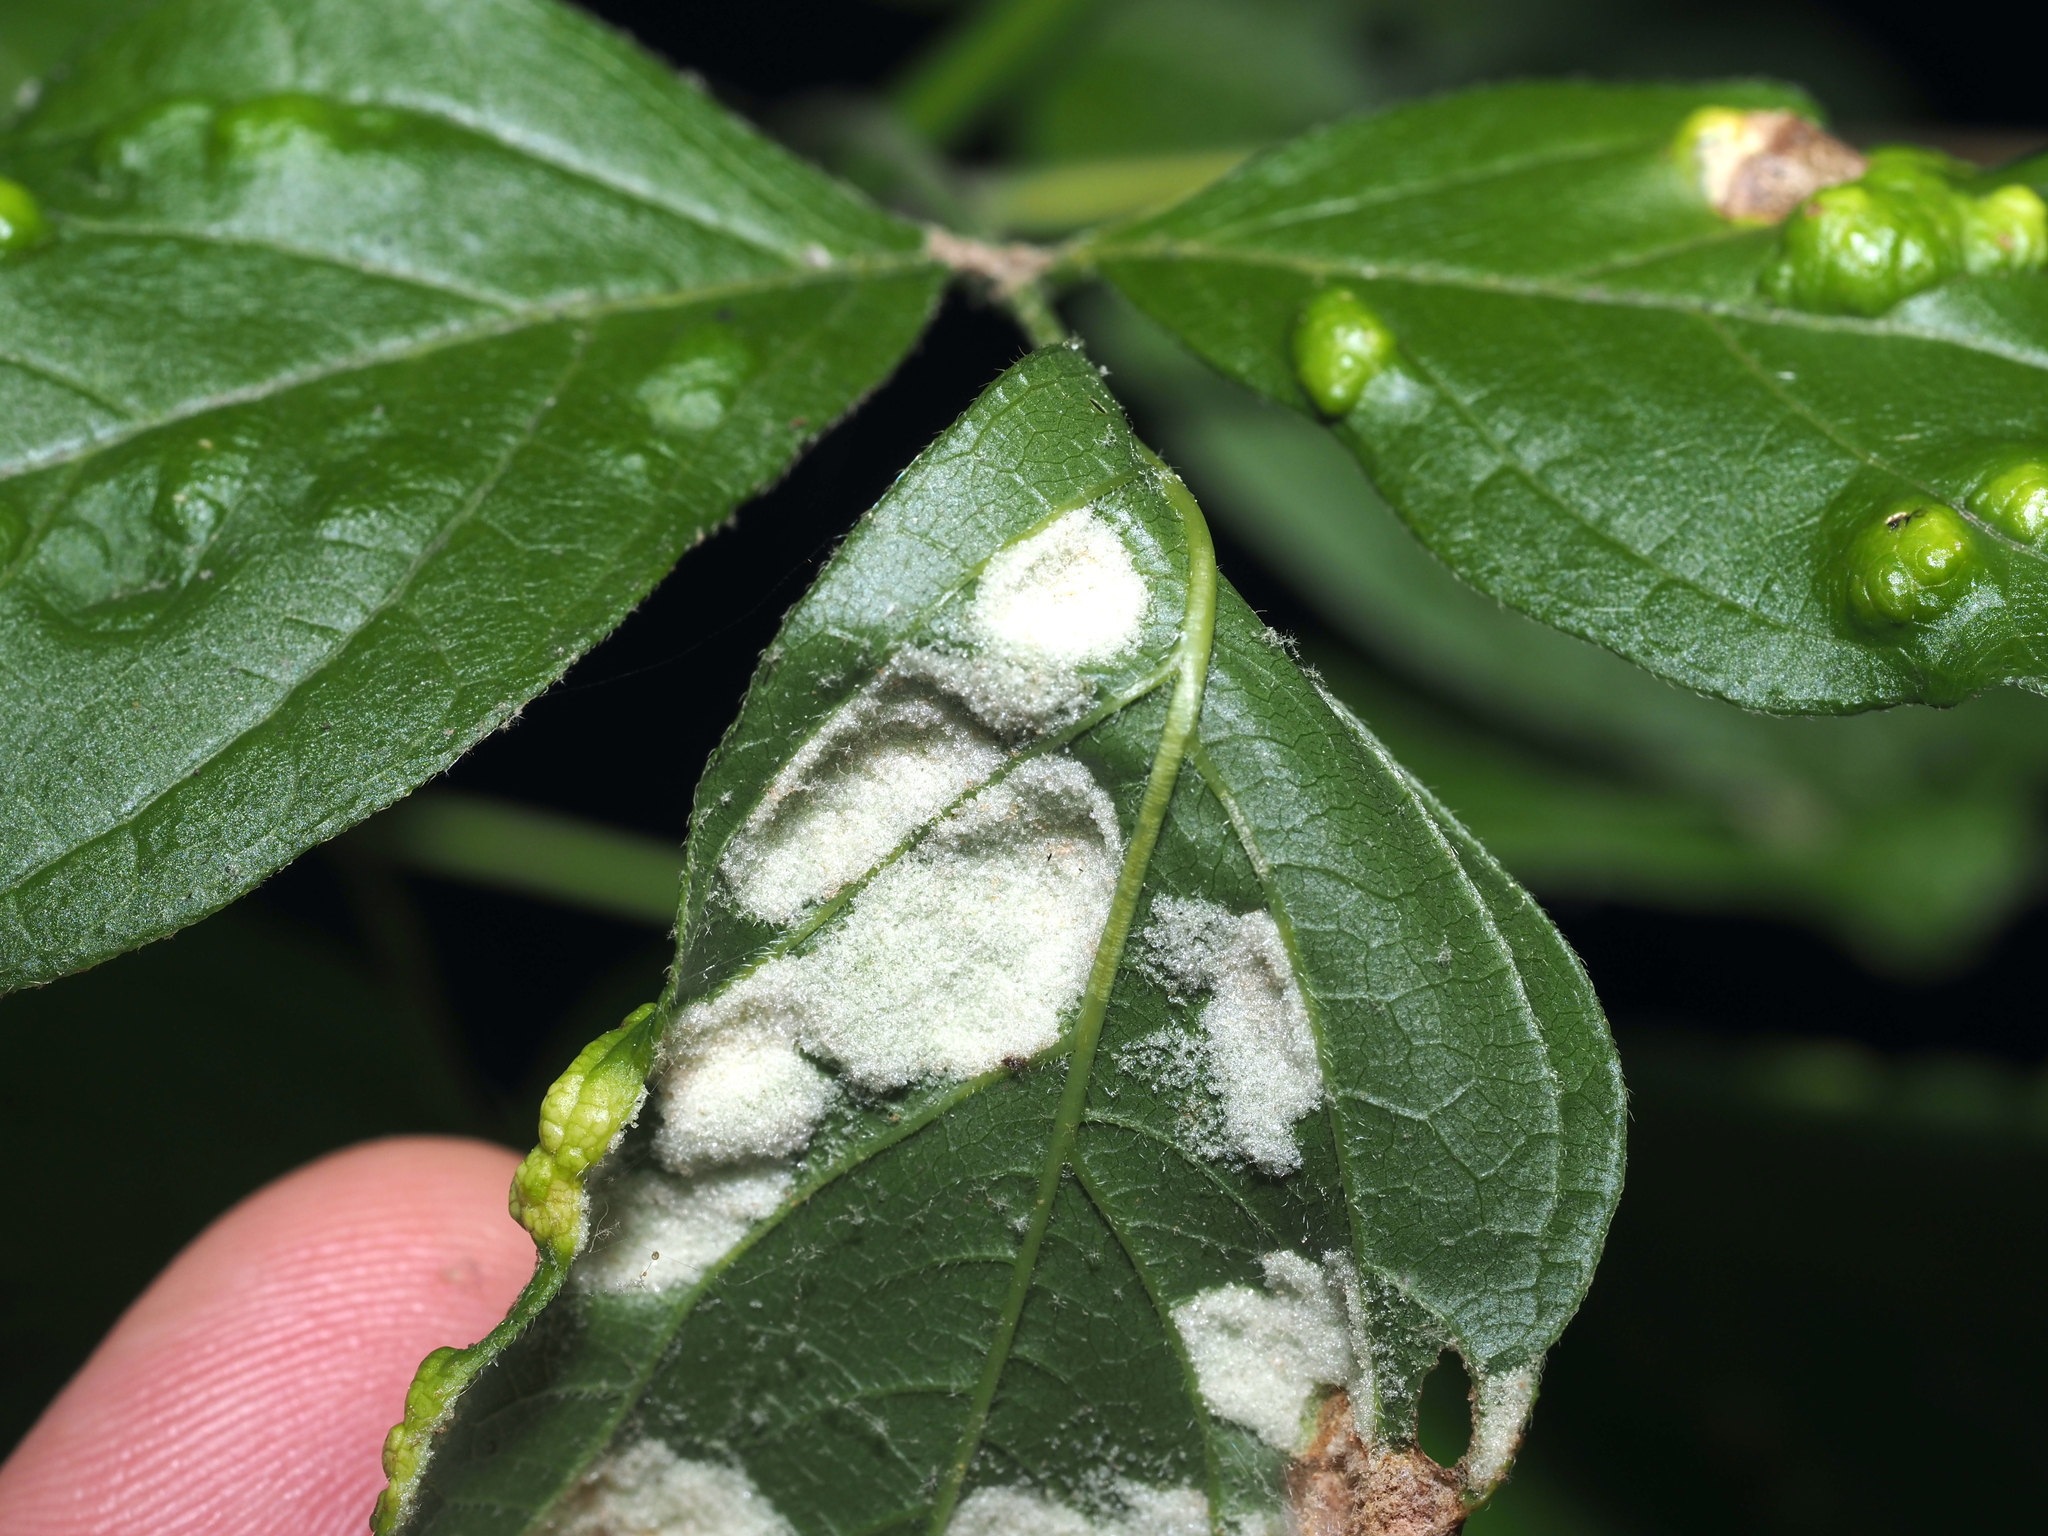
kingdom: Animalia
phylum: Arthropoda
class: Arachnida
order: Trombidiformes
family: Eriophyidae
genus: Aceria
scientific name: Aceria
